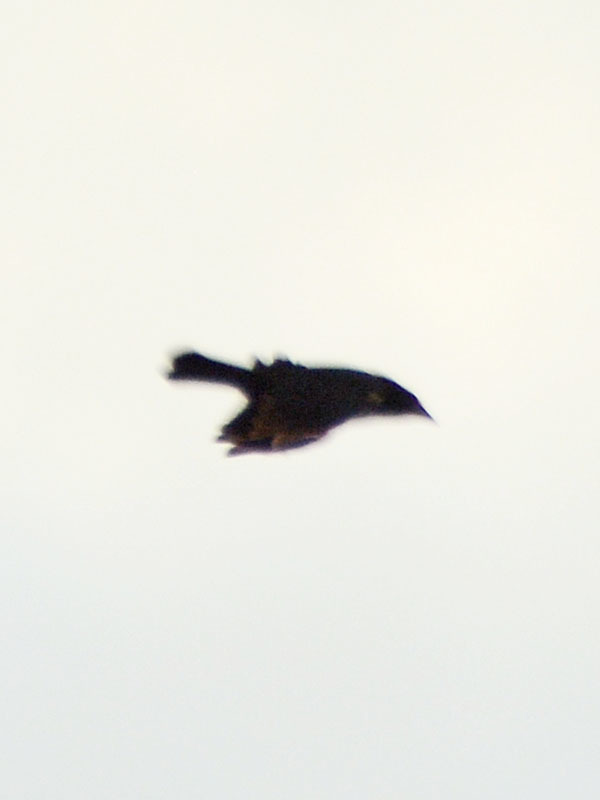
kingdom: Animalia
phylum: Chordata
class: Aves
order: Passeriformes
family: Icteridae
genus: Agelaius
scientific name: Agelaius phoeniceus
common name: Red-winged blackbird
